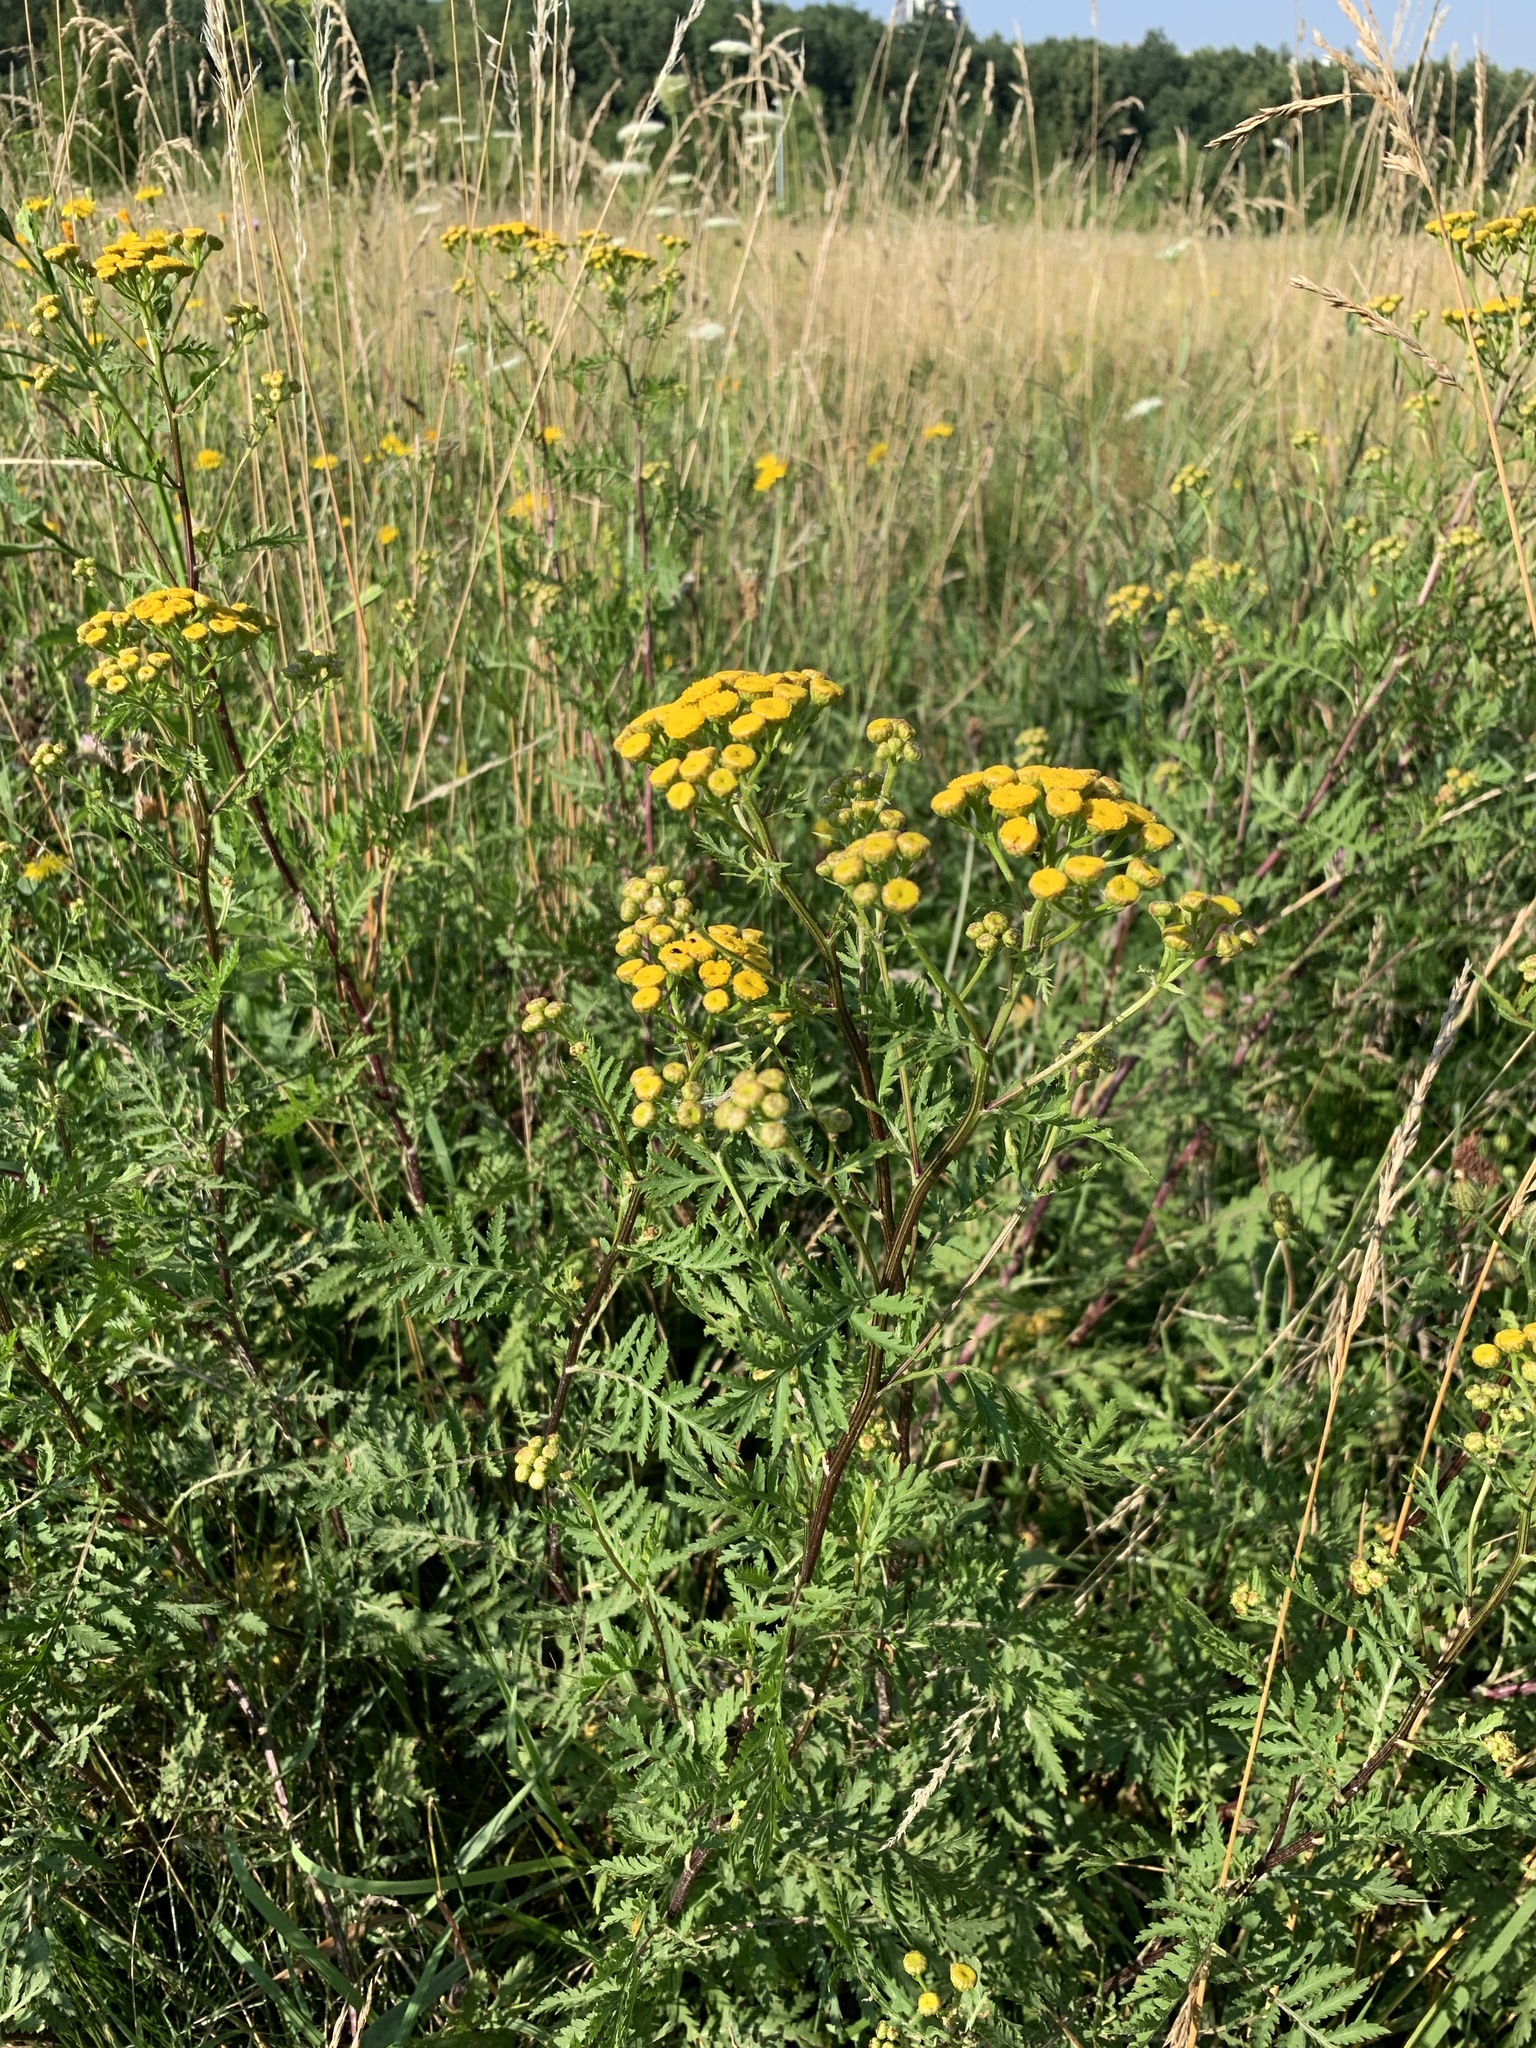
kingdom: Plantae
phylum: Tracheophyta
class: Magnoliopsida
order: Asterales
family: Asteraceae
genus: Tanacetum
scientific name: Tanacetum vulgare
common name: Common tansy
